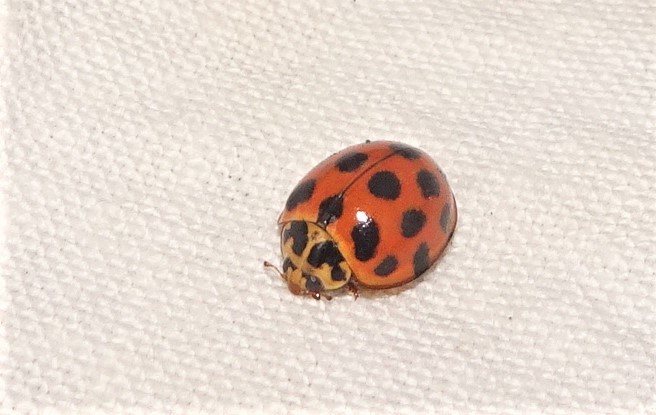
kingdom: Animalia
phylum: Arthropoda
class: Insecta
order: Coleoptera
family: Coccinellidae
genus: Harmonia
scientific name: Harmonia conformis
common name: Common spotted ladybird beetle
